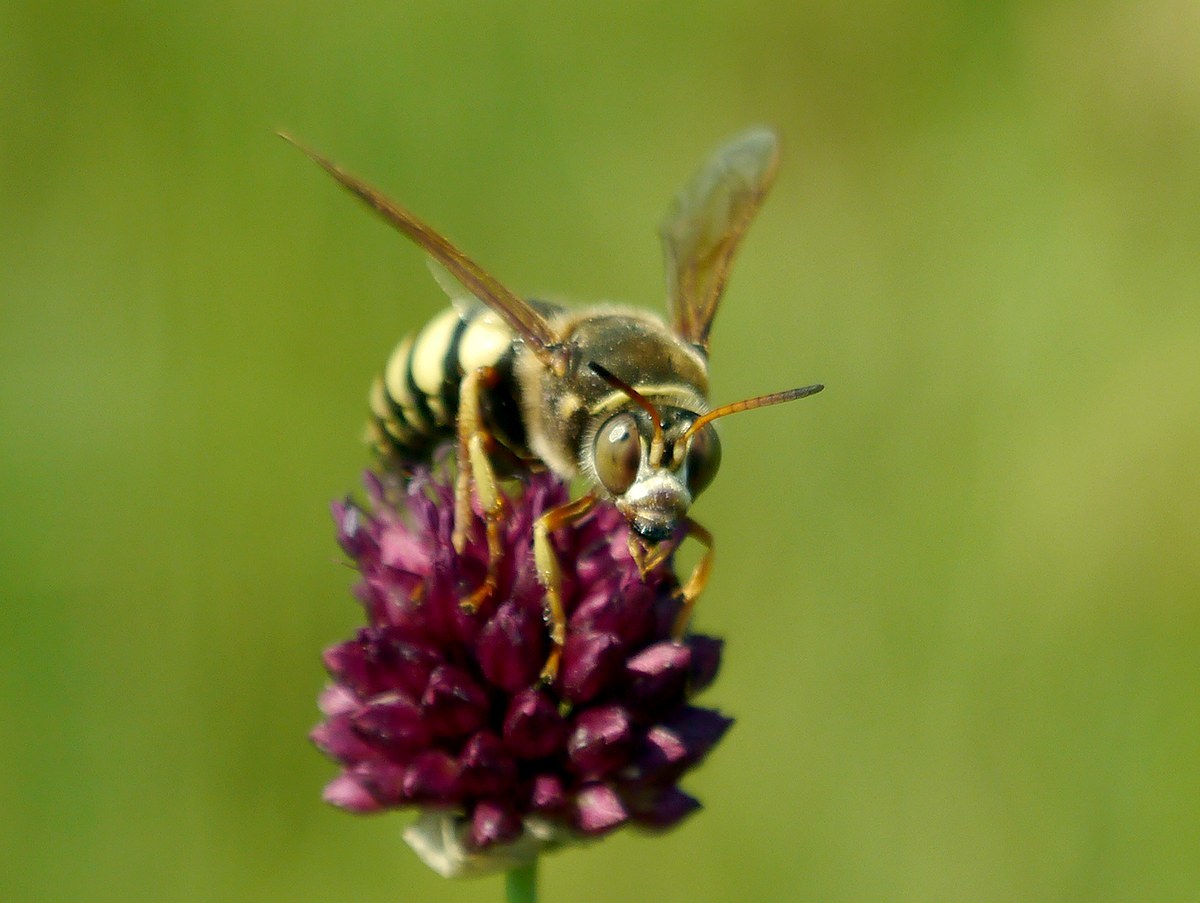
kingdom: Animalia
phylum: Arthropoda
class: Insecta
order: Hymenoptera
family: Crabronidae
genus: Sphecius
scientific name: Sphecius antennatus
